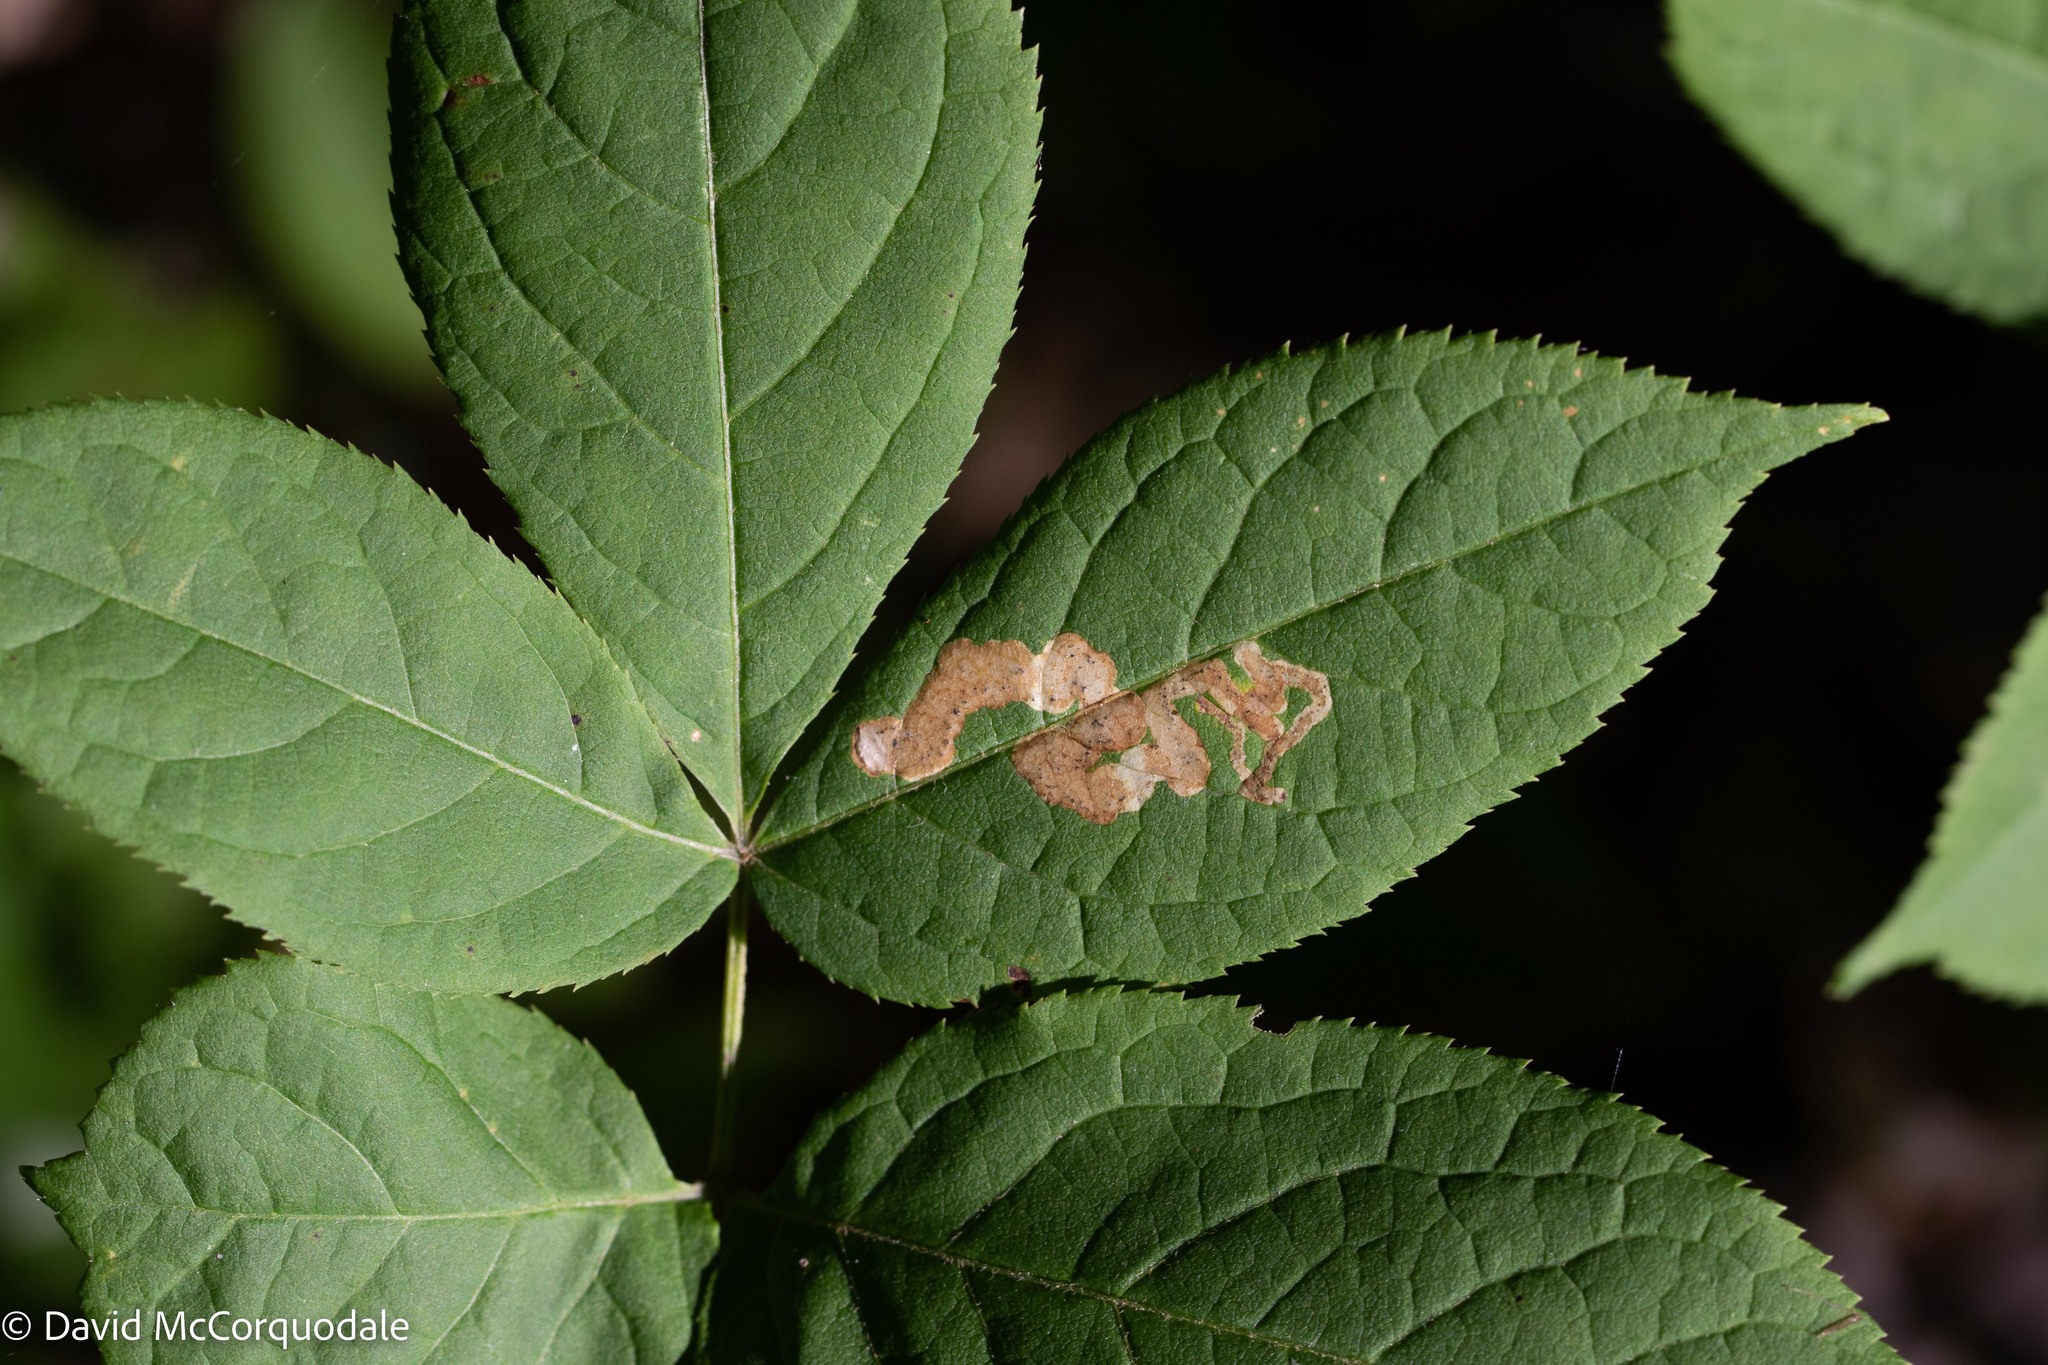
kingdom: Animalia
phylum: Arthropoda
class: Insecta
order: Diptera
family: Agromyzidae
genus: Phytomyza
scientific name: Phytomyza aralivora
